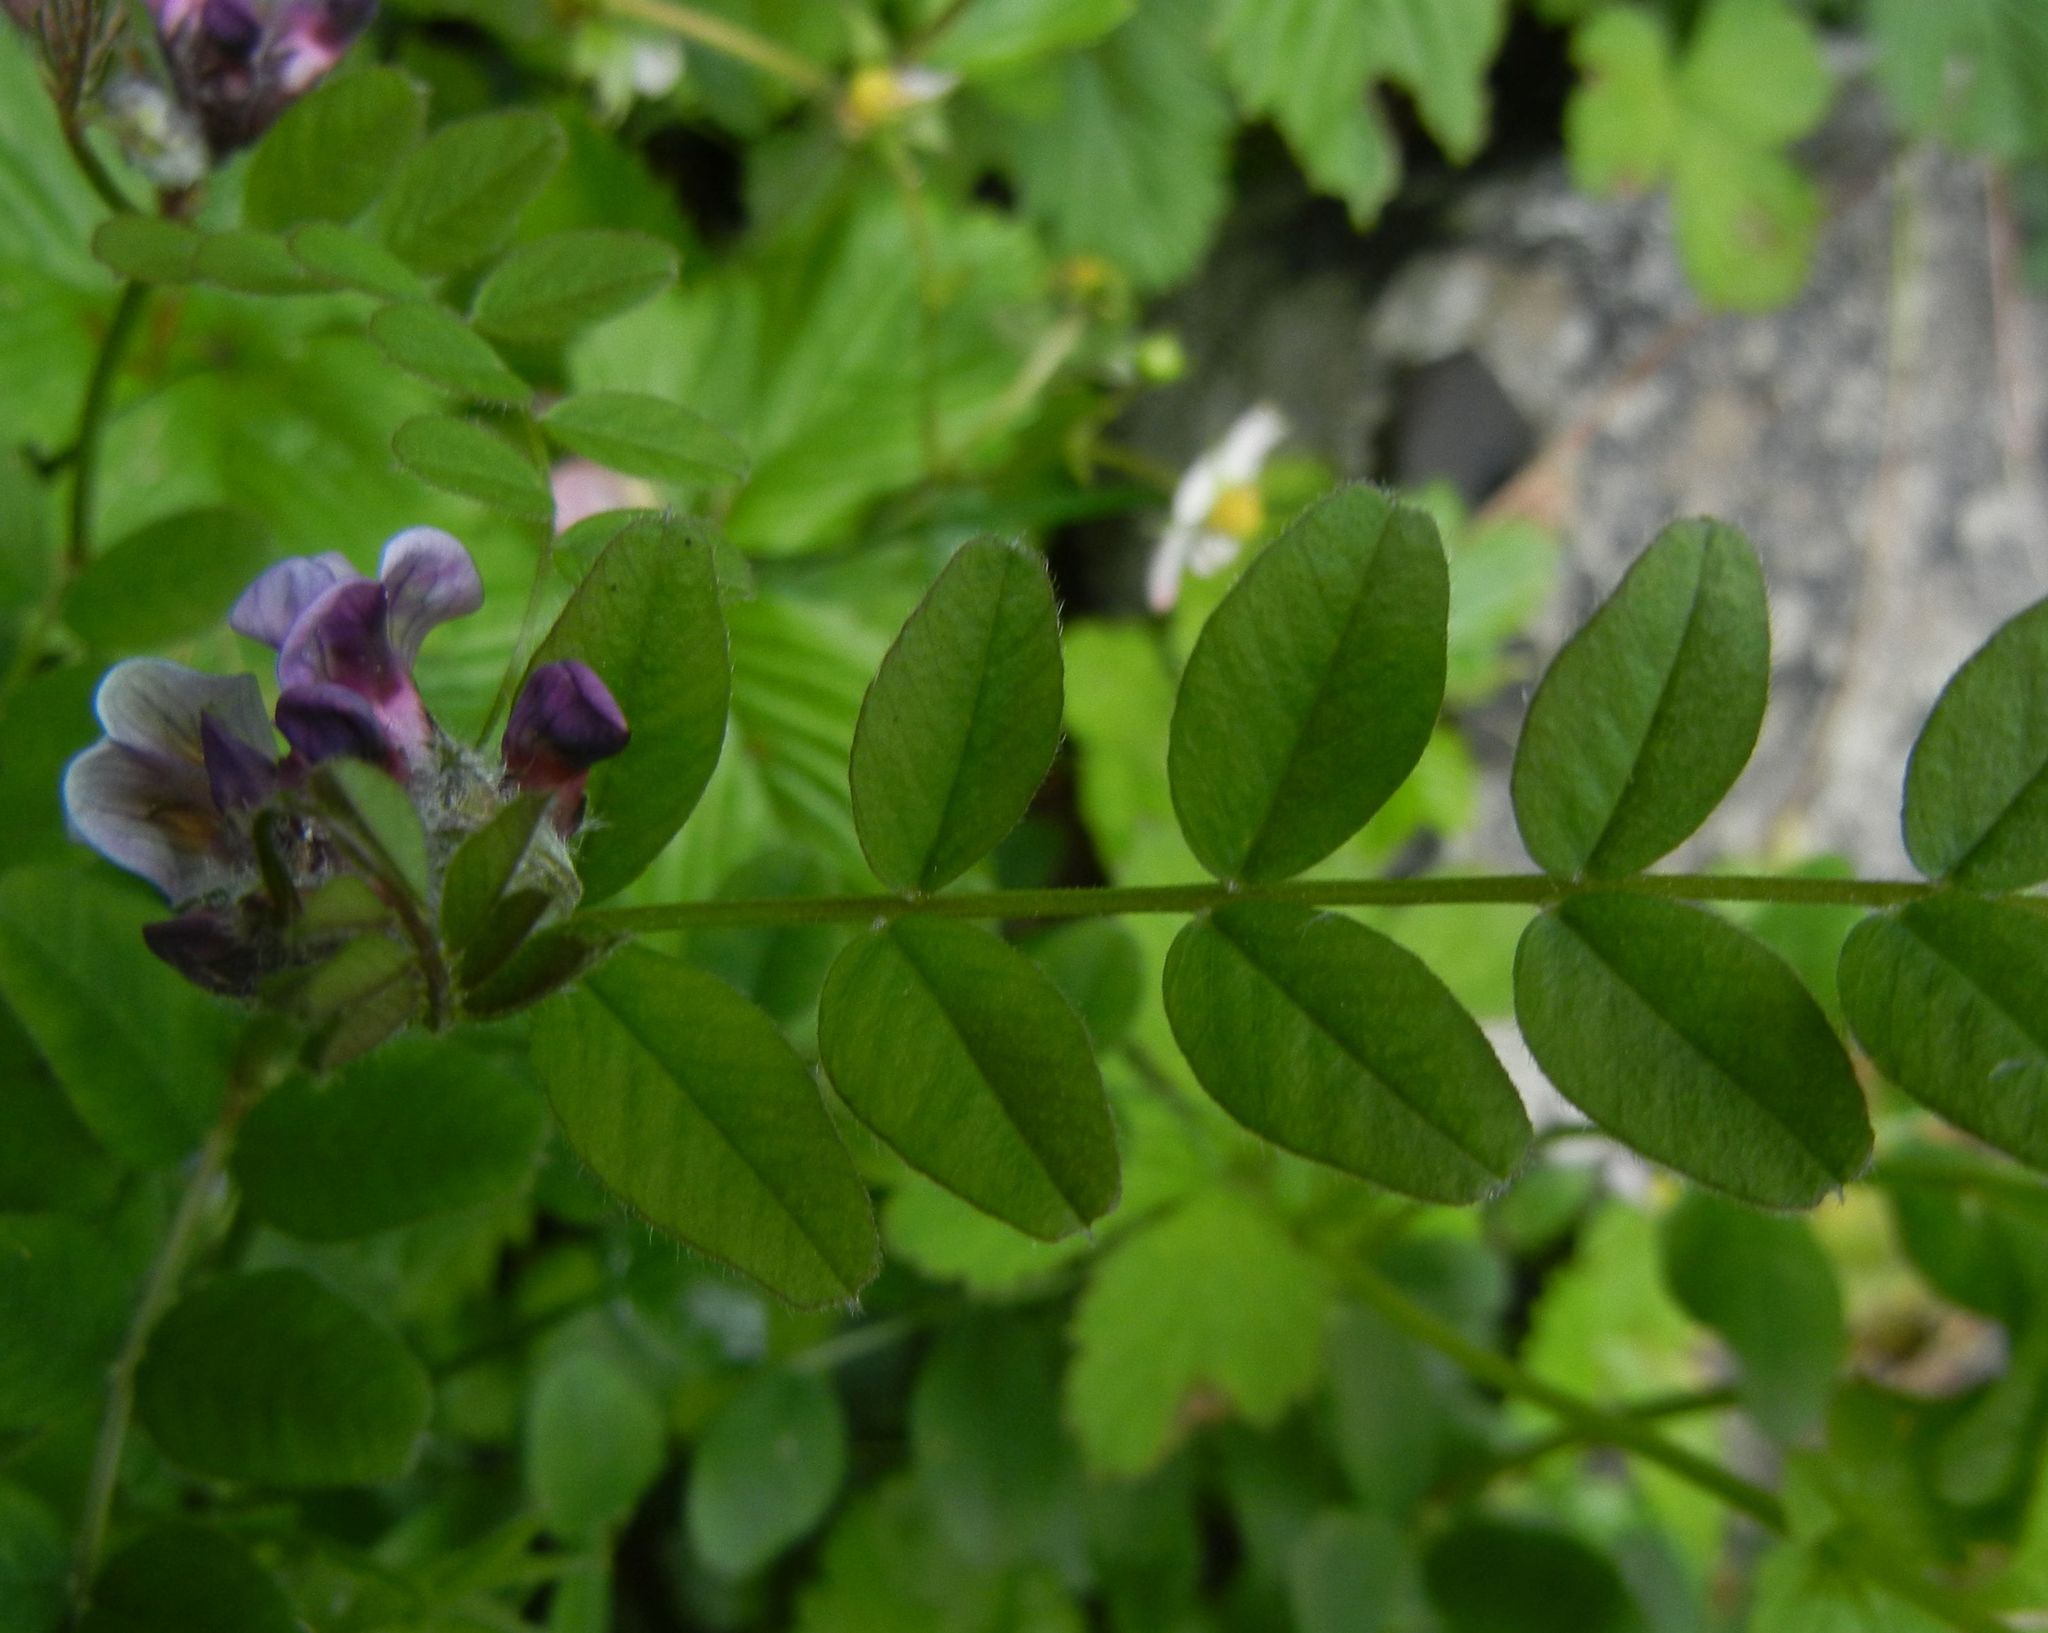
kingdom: Plantae
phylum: Tracheophyta
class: Magnoliopsida
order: Fabales
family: Fabaceae
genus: Vicia
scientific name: Vicia sepium
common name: Bush vetch
